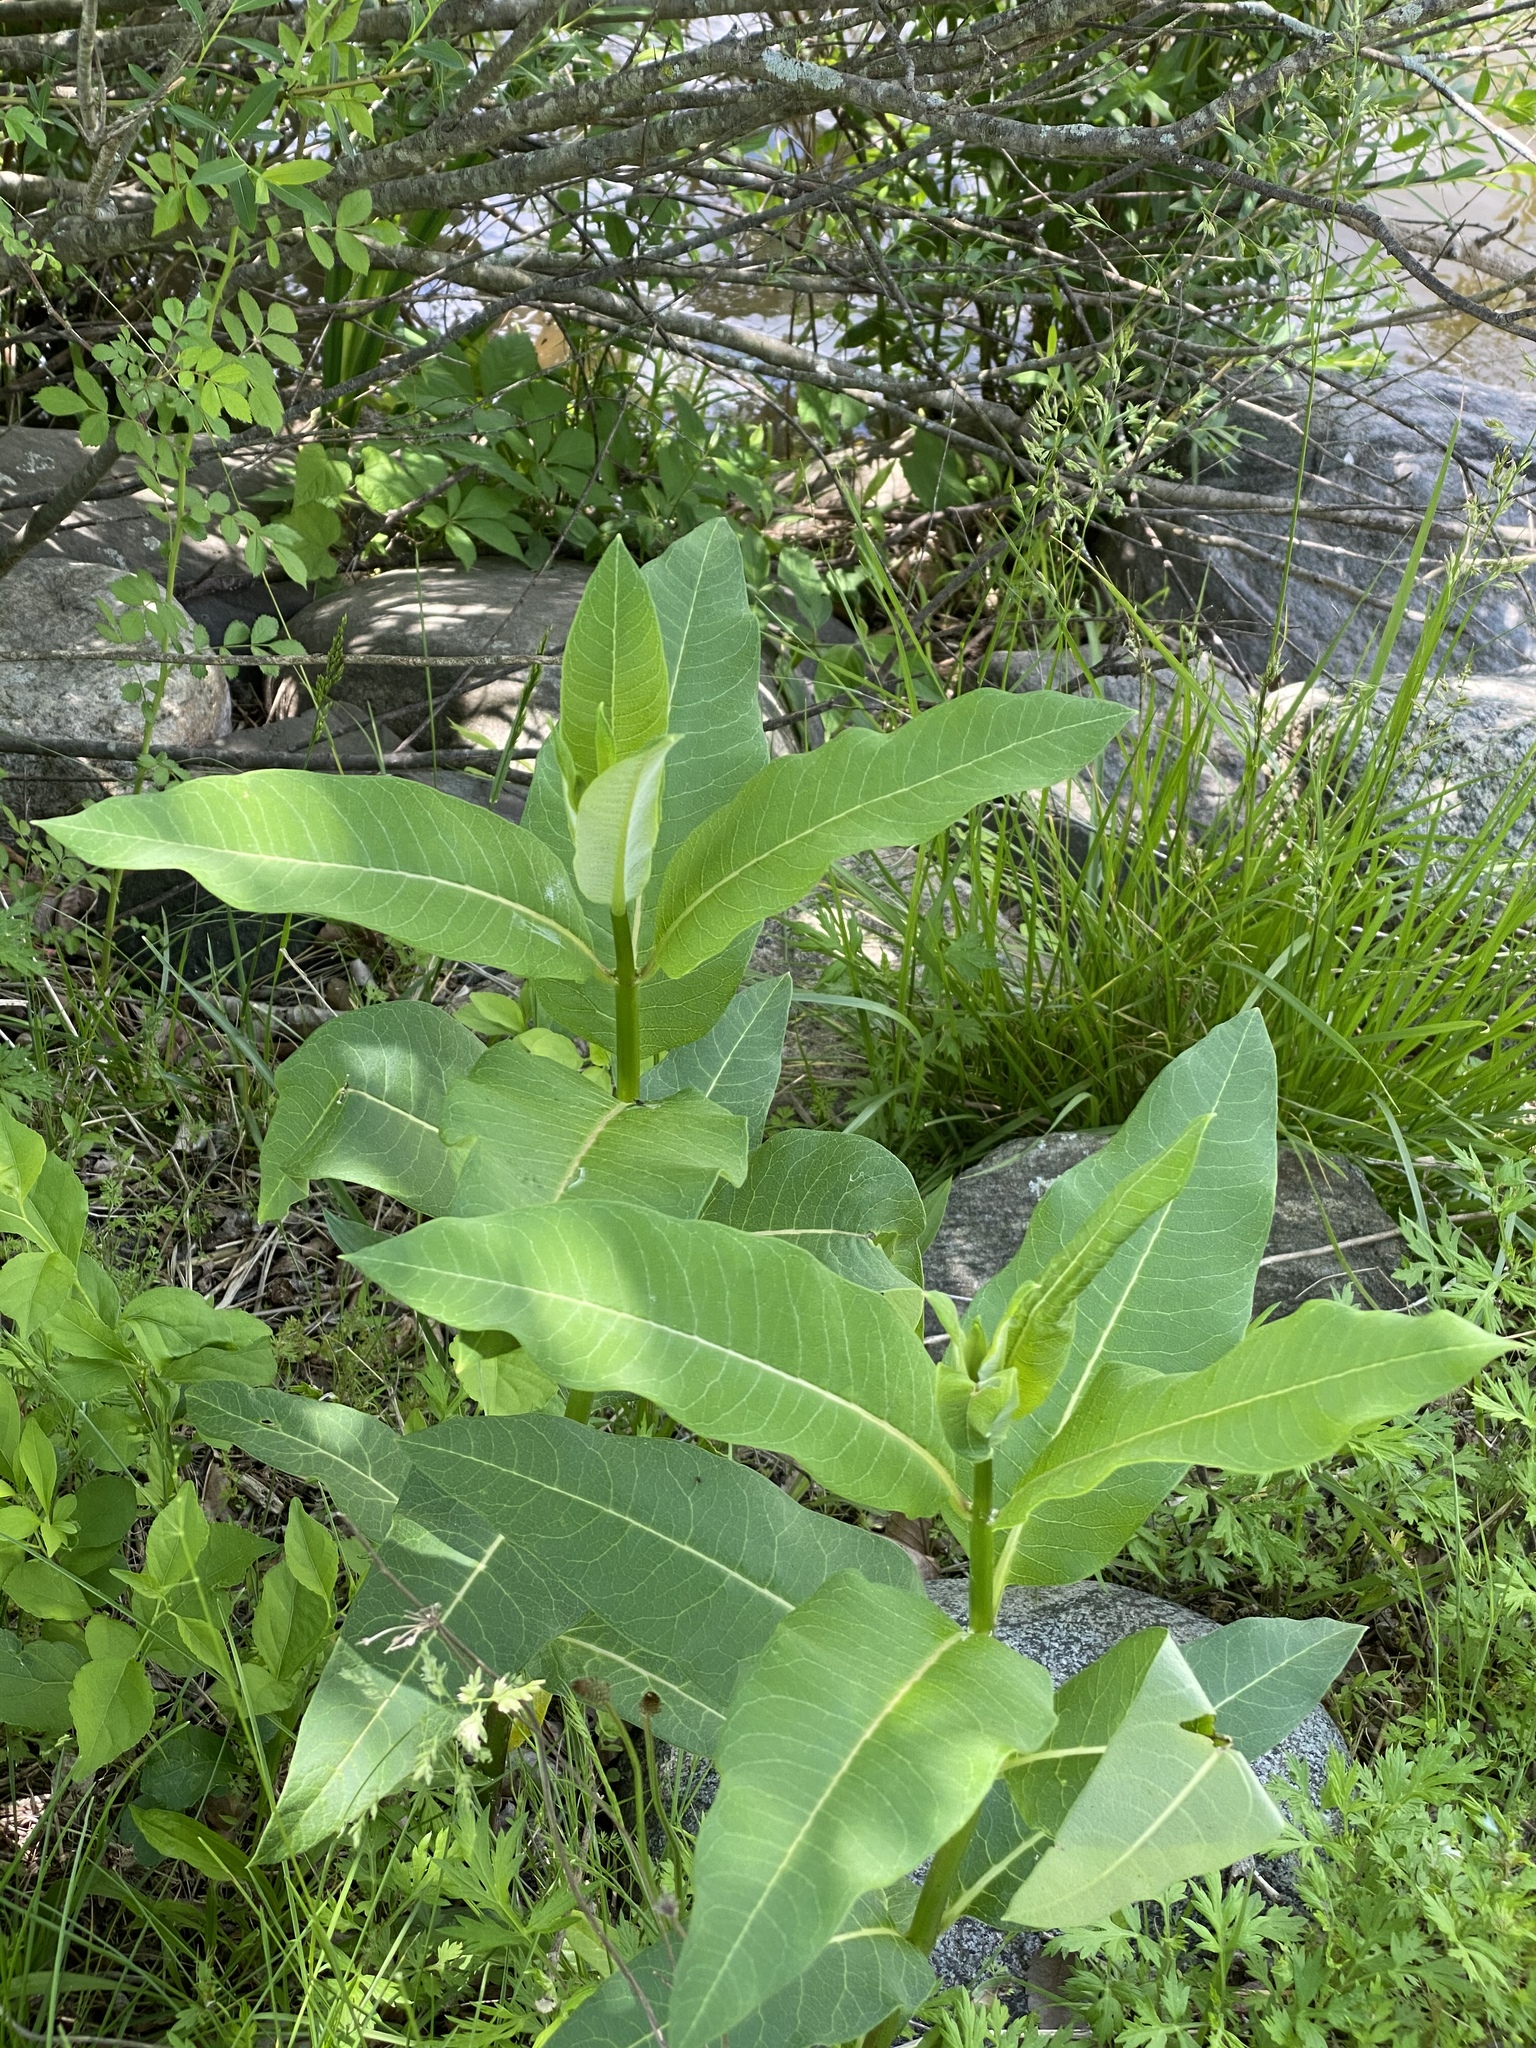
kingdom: Plantae
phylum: Tracheophyta
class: Magnoliopsida
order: Gentianales
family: Apocynaceae
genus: Asclepias
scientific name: Asclepias syriaca
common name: Common milkweed
